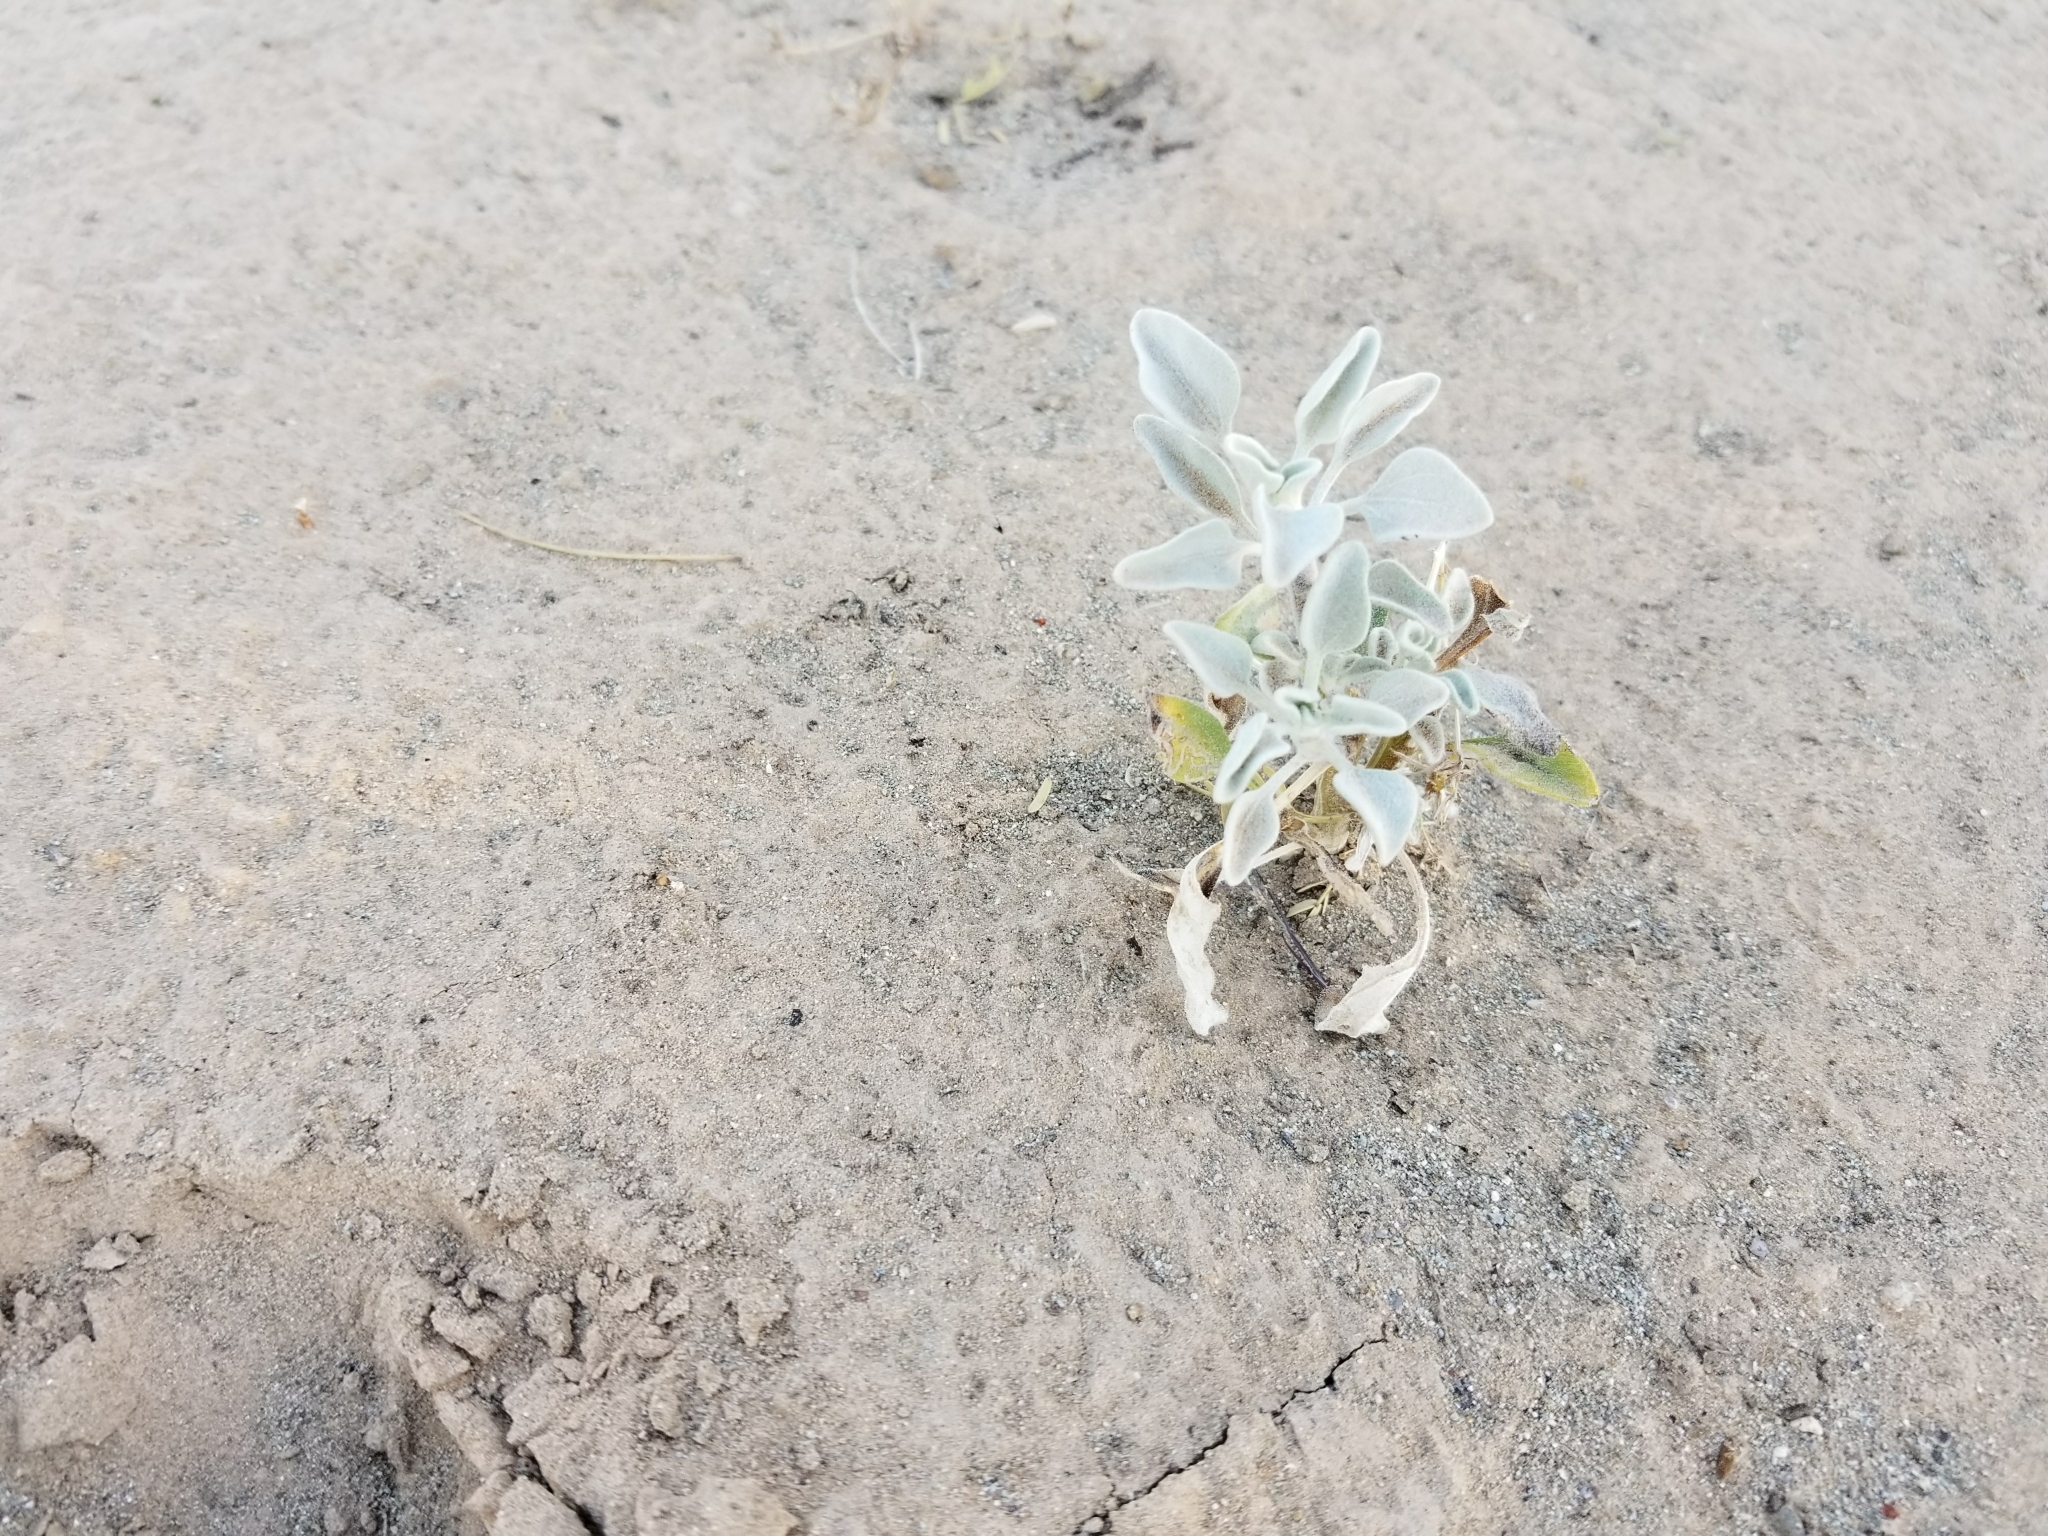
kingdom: Plantae
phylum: Tracheophyta
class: Magnoliopsida
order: Asterales
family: Asteraceae
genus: Encelia
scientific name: Encelia farinosa
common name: Brittlebush
